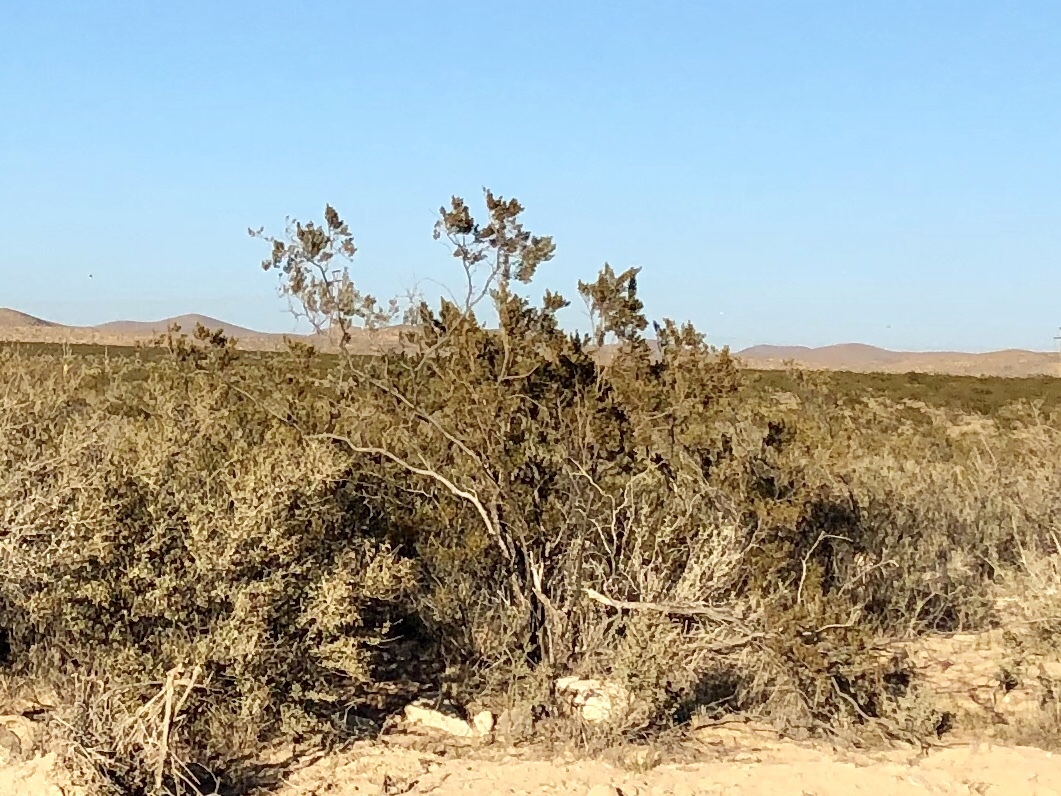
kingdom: Plantae
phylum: Tracheophyta
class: Magnoliopsida
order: Zygophyllales
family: Zygophyllaceae
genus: Larrea
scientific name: Larrea tridentata
